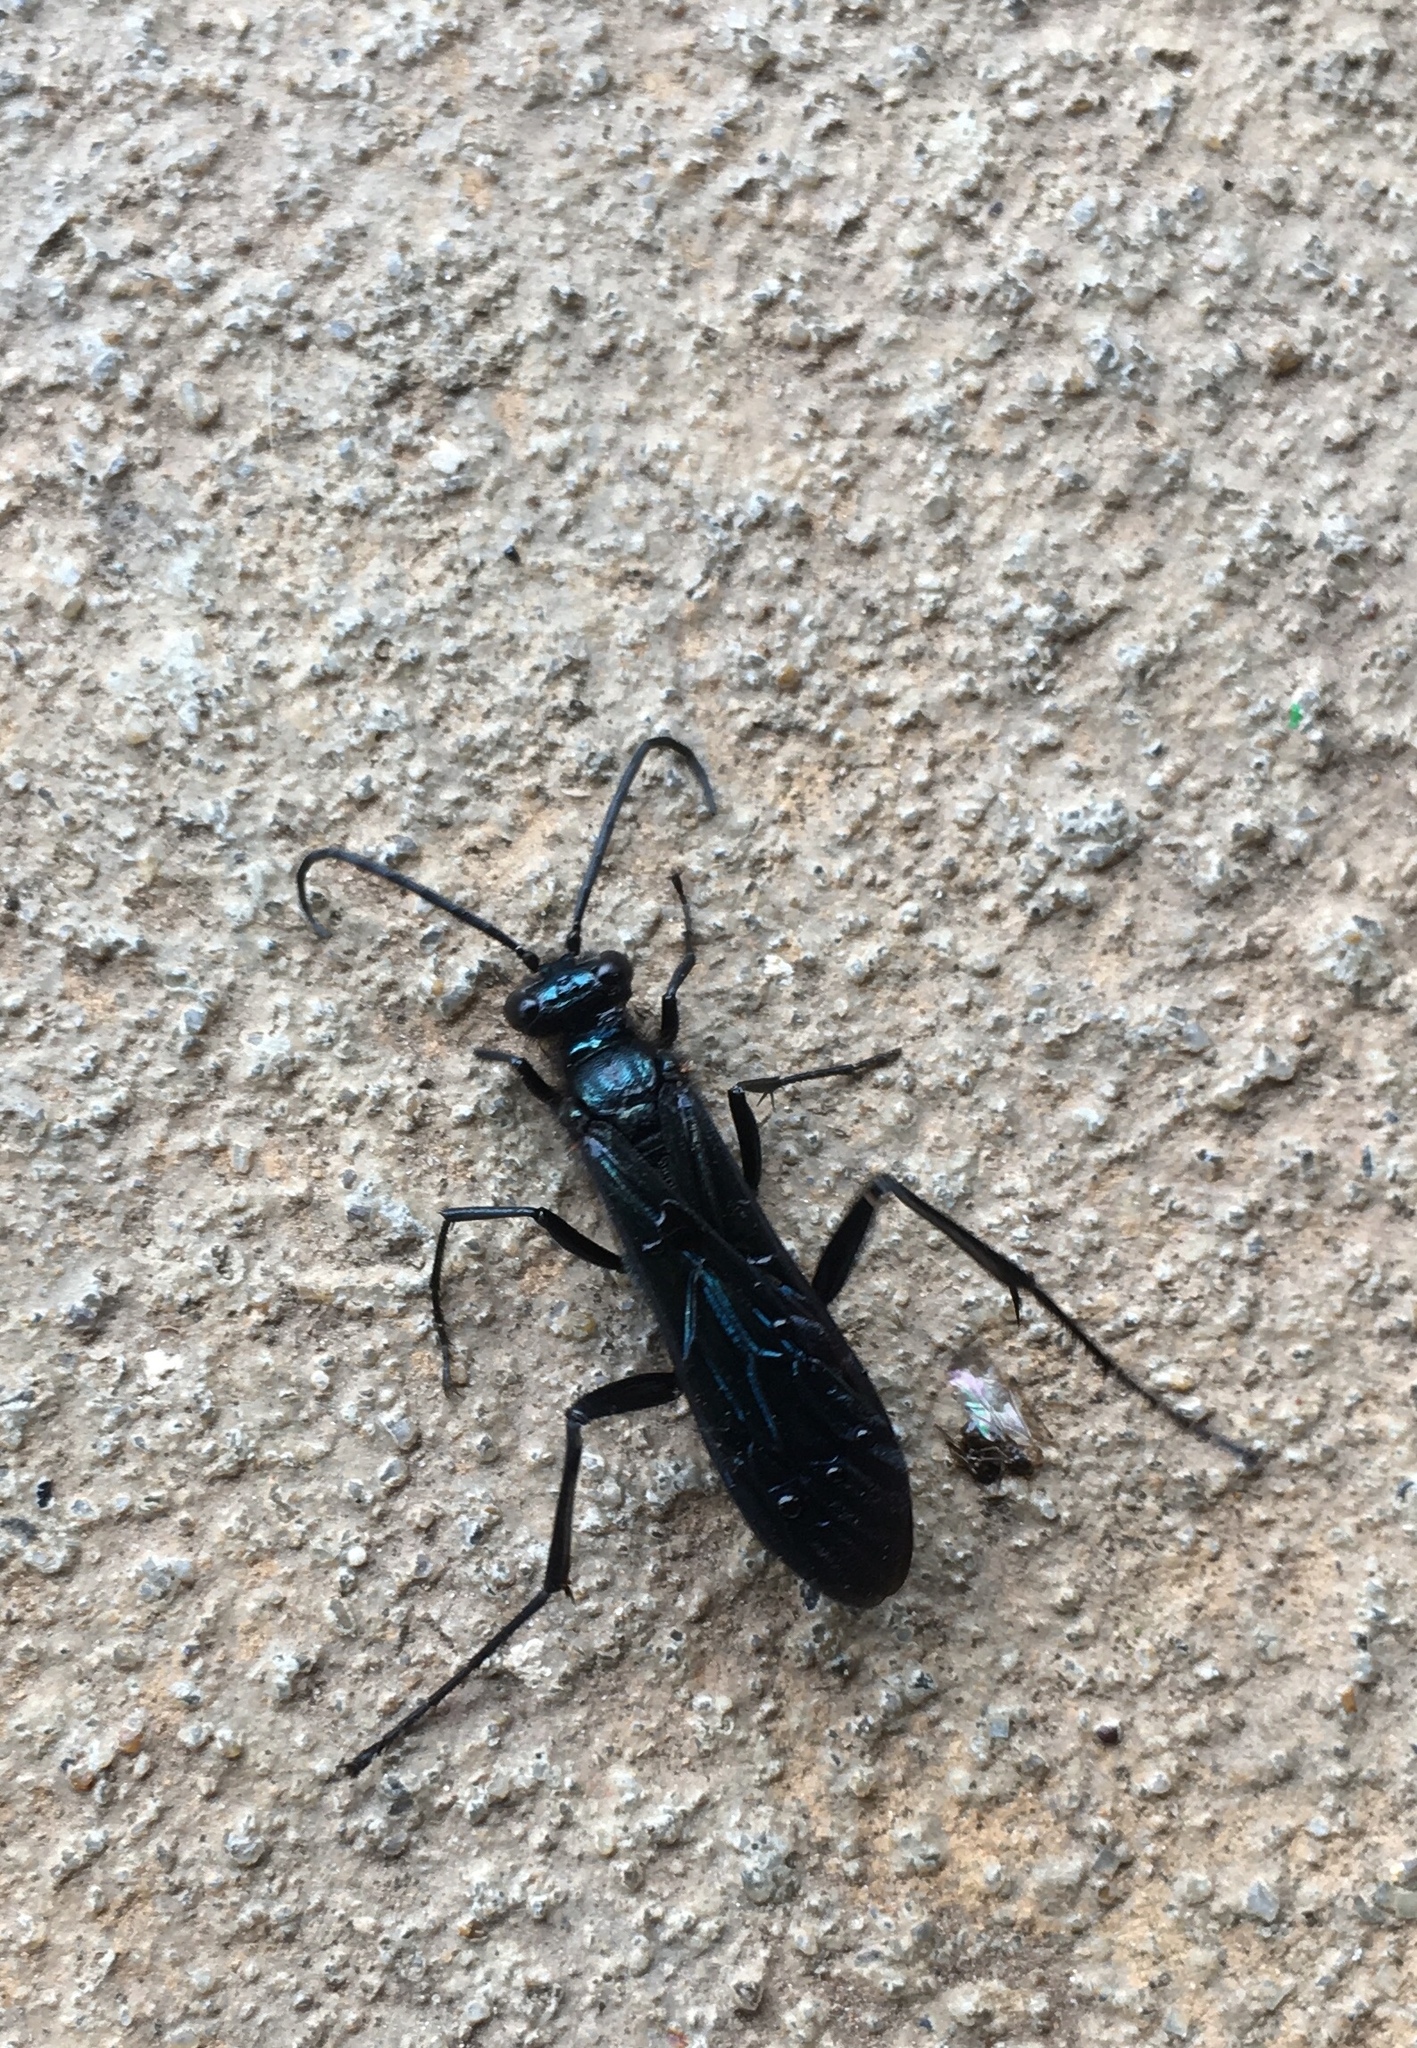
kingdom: Animalia
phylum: Arthropoda
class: Insecta
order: Hymenoptera
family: Sphecidae
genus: Chalybion
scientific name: Chalybion californicum
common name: Mud dauber
